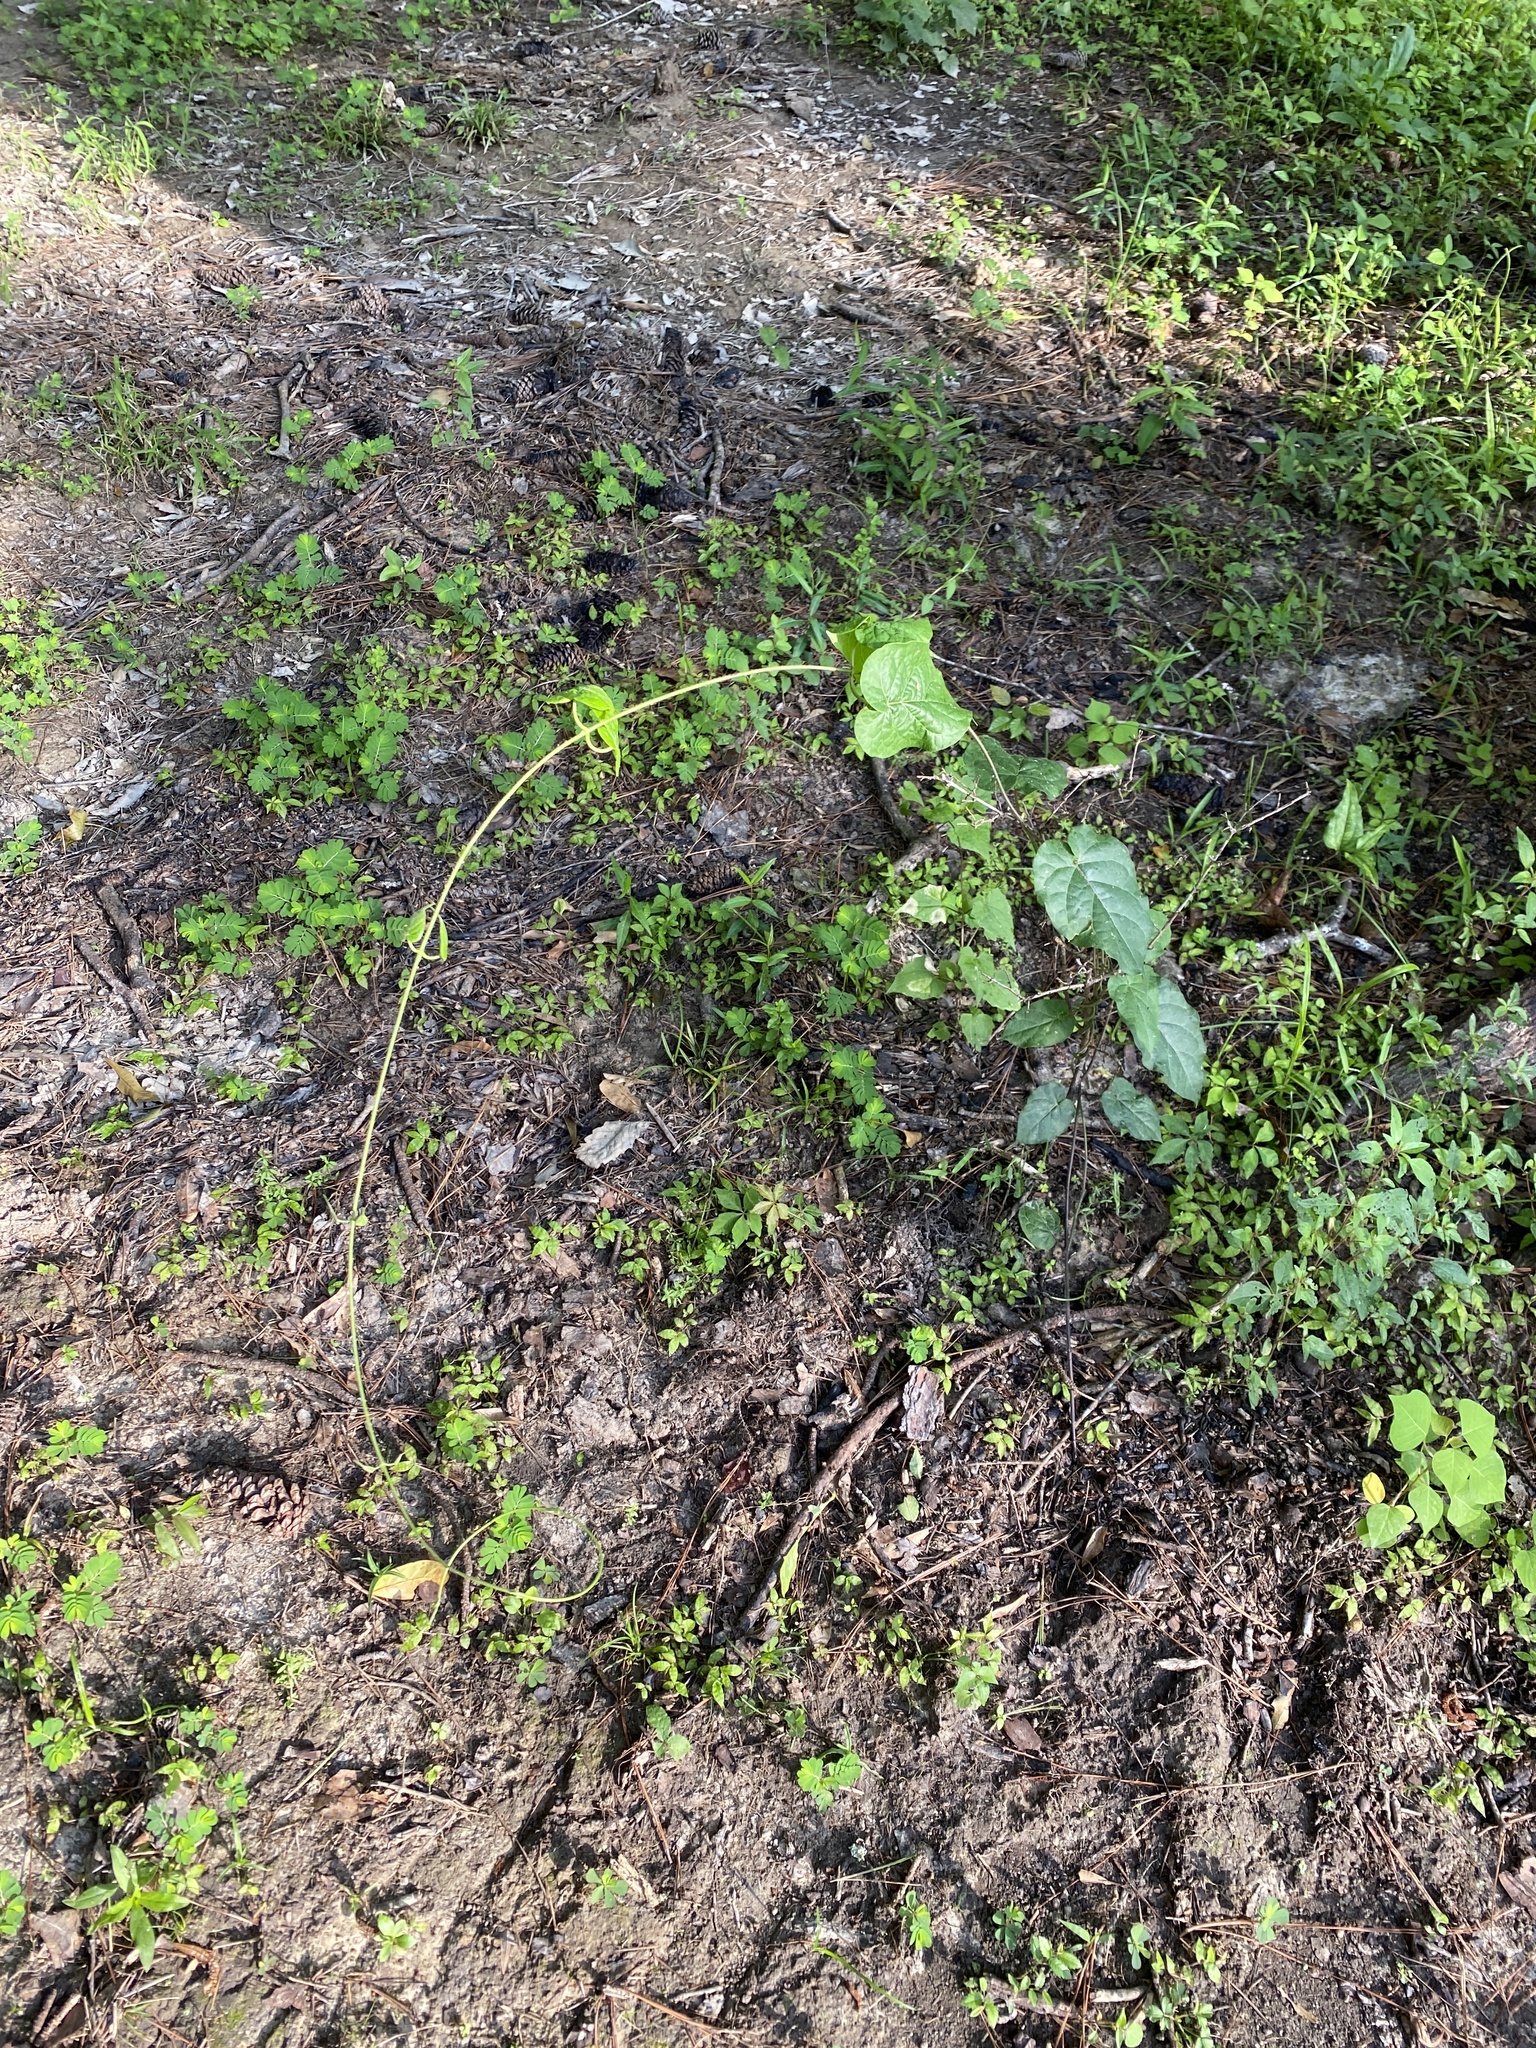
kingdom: Plantae
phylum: Tracheophyta
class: Magnoliopsida
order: Gentianales
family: Apocynaceae
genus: Gonolobus
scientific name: Gonolobus suberosus
